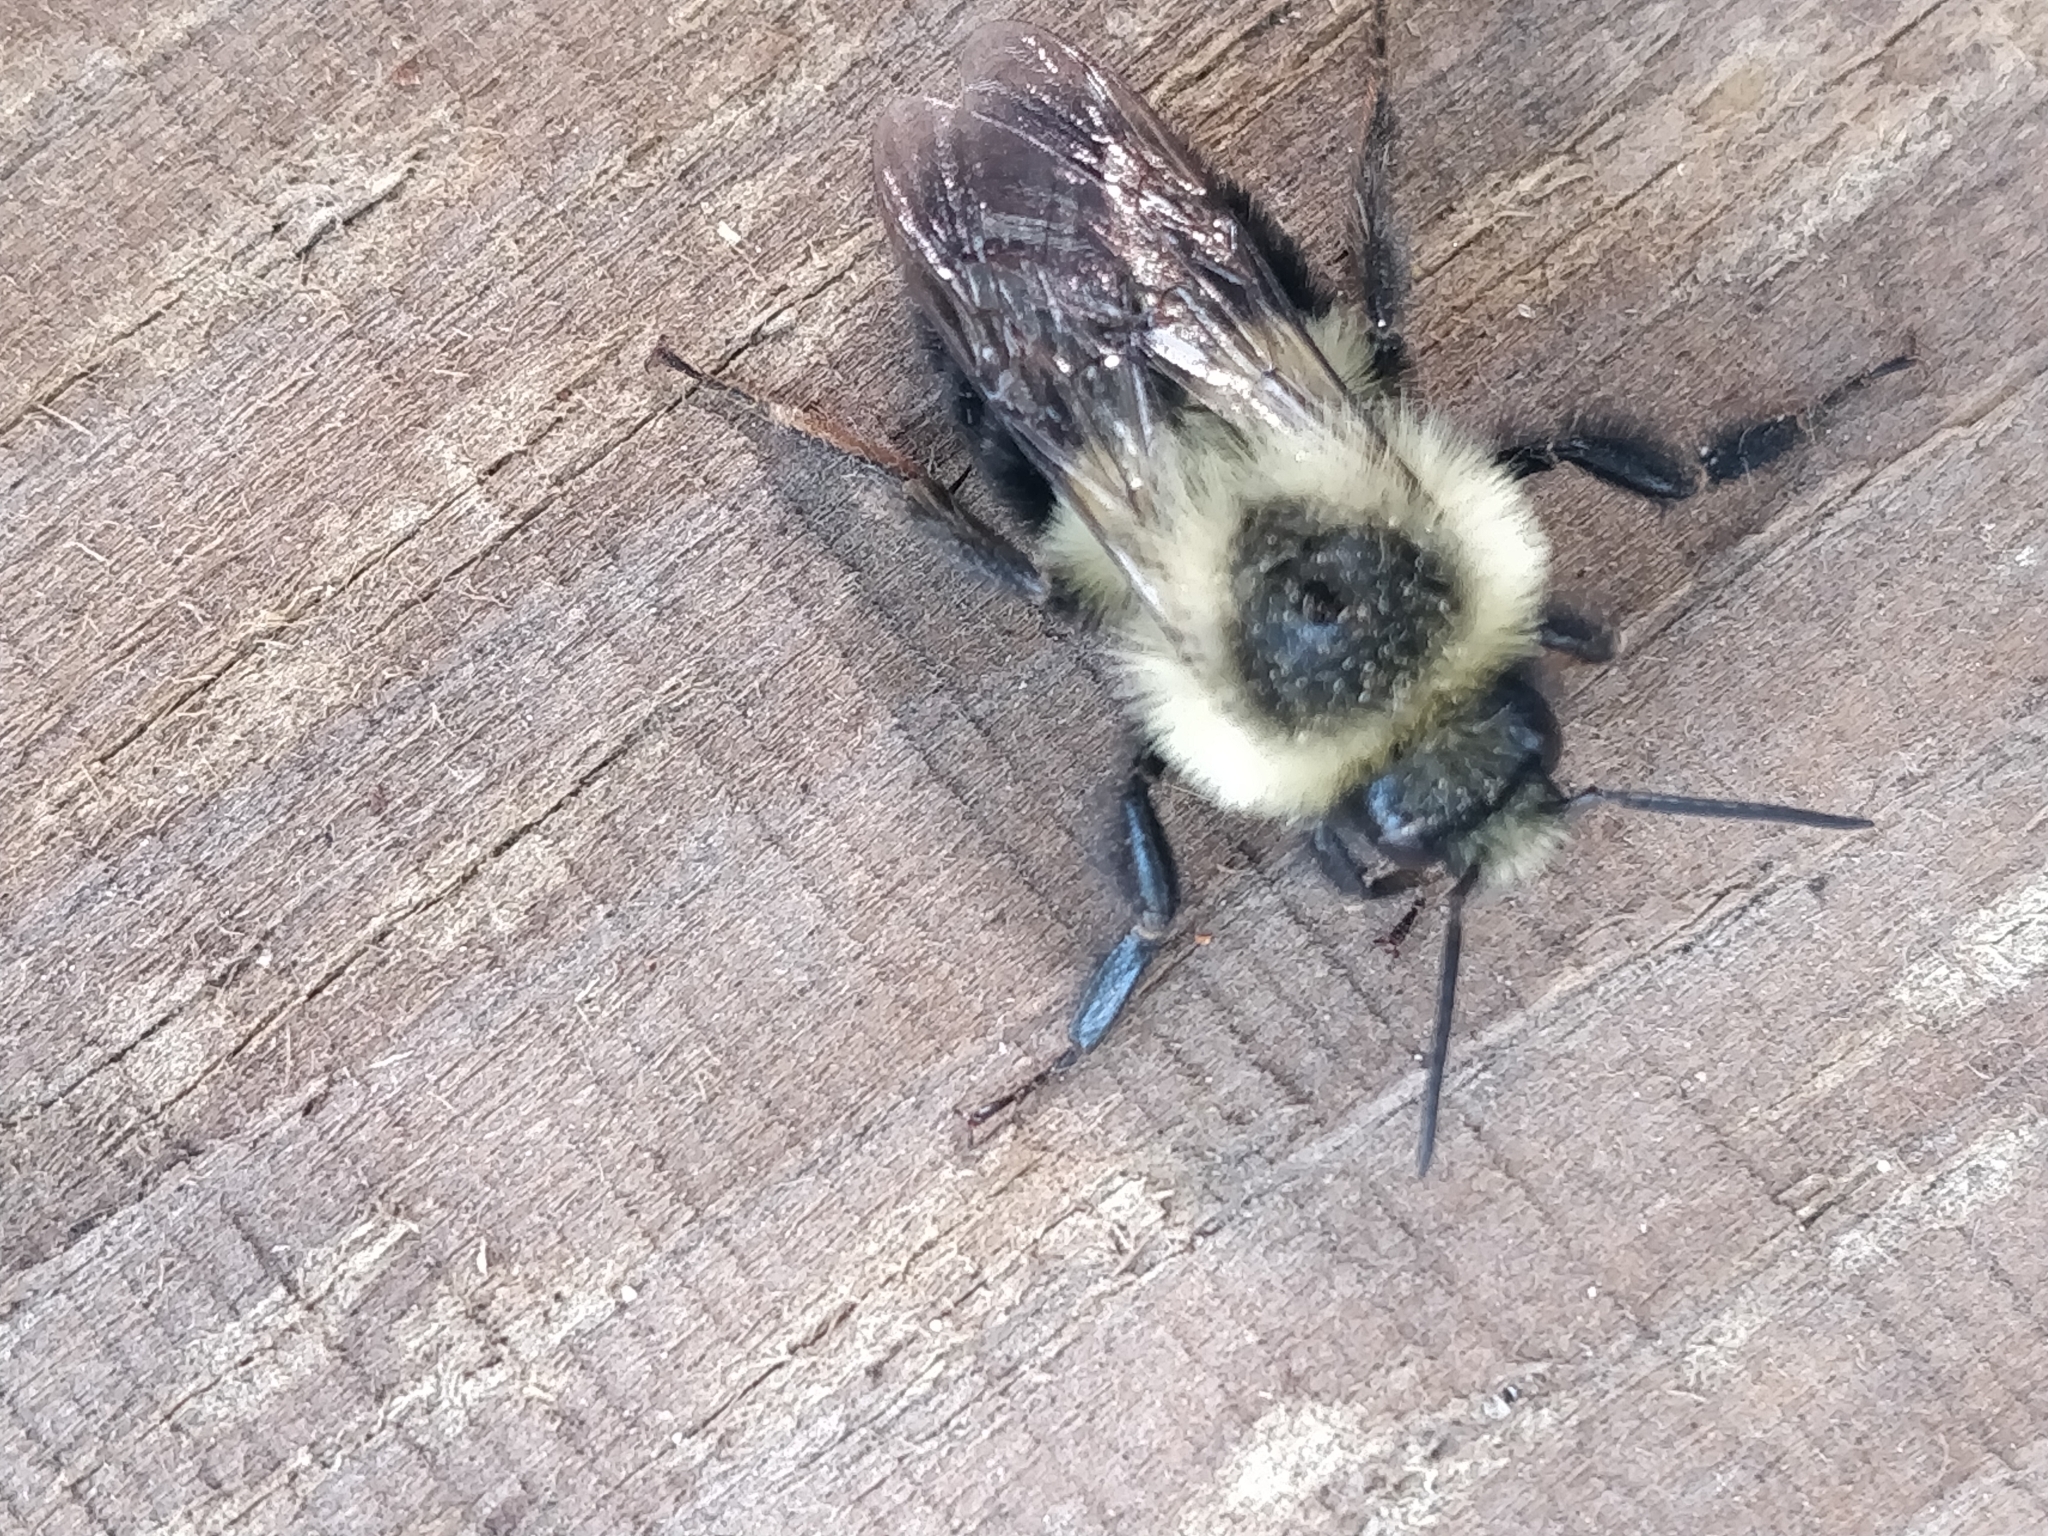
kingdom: Animalia
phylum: Arthropoda
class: Insecta
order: Hymenoptera
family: Apidae
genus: Bombus
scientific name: Bombus impatiens
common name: Common eastern bumble bee
